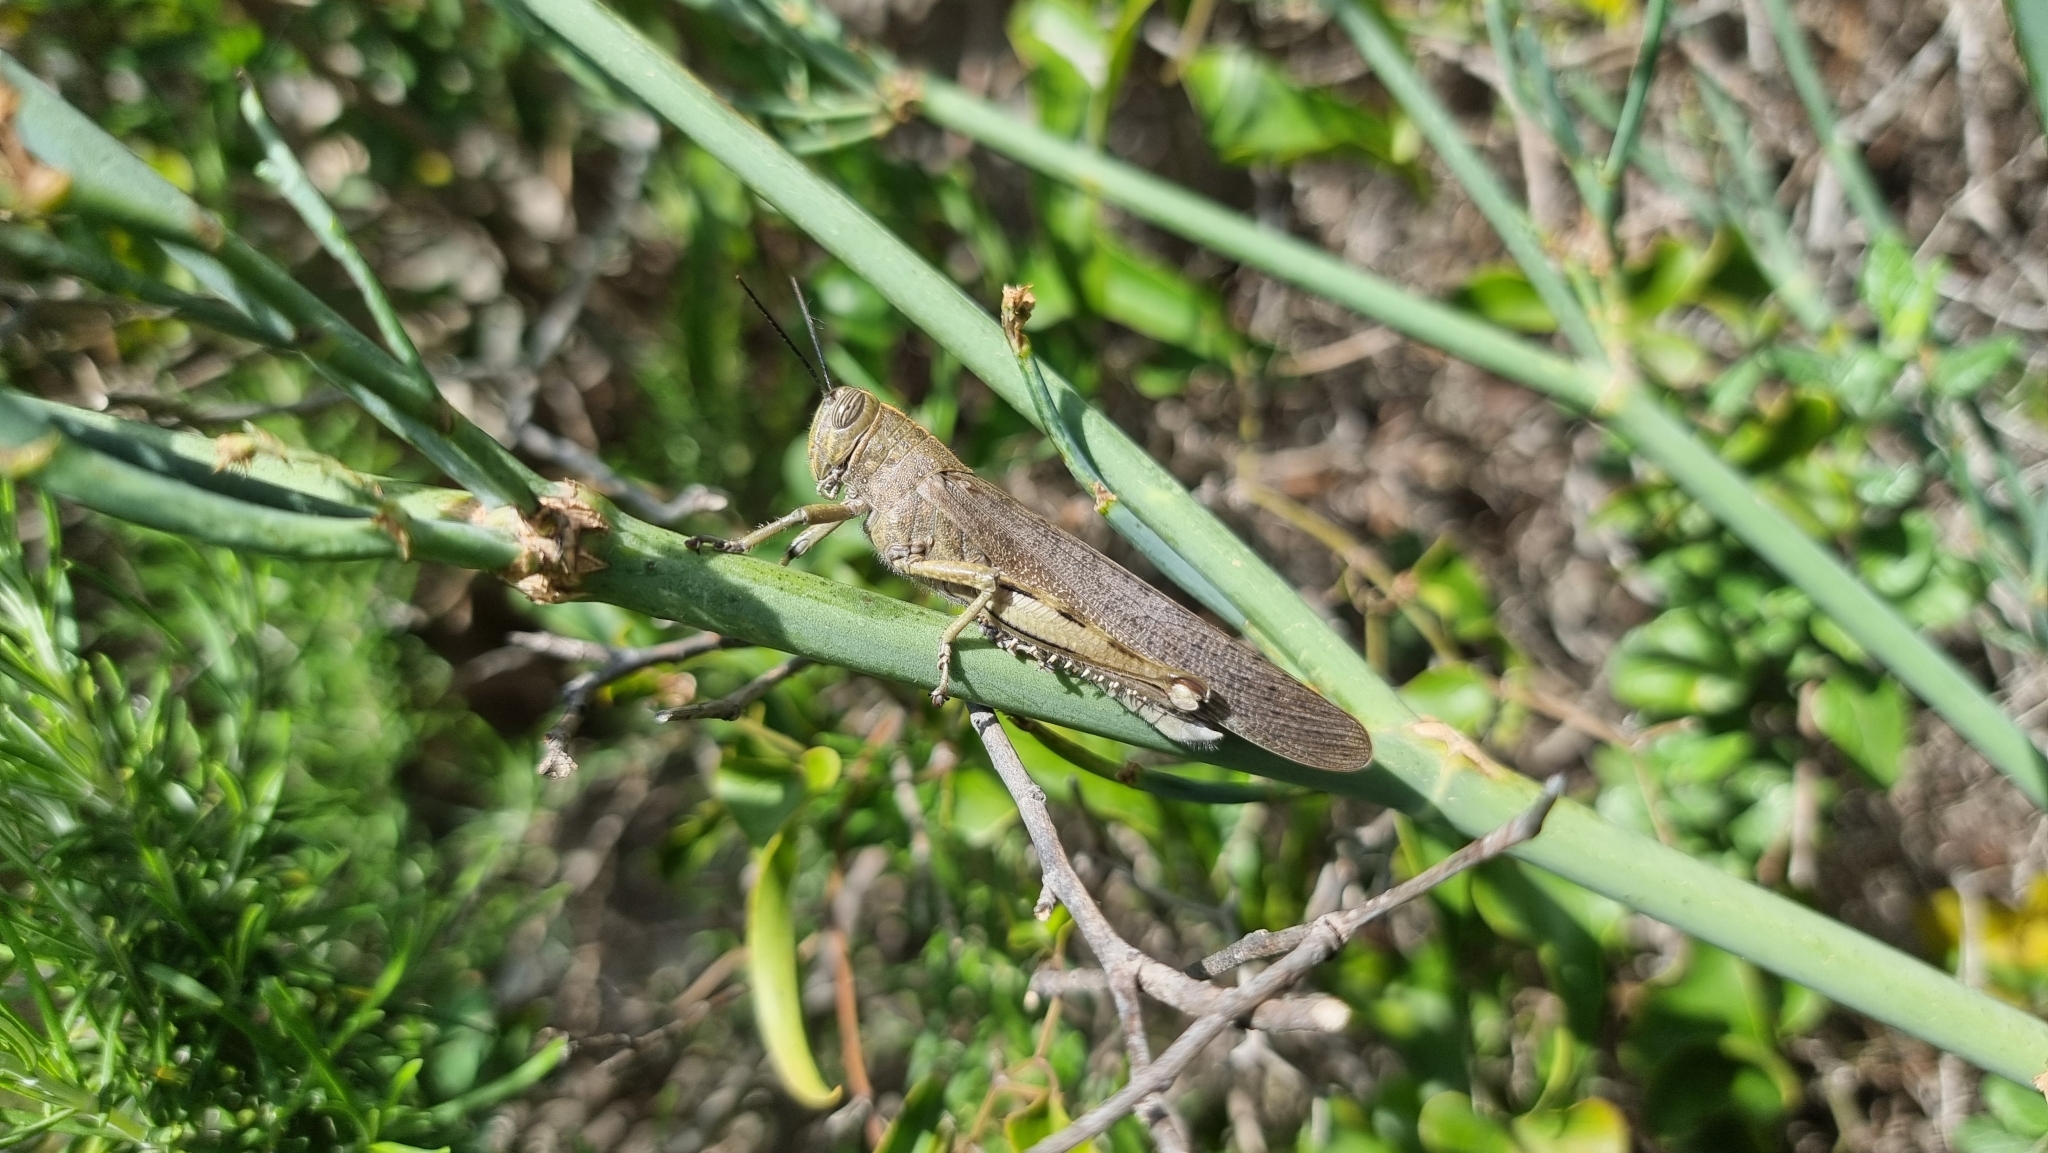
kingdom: Animalia
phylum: Arthropoda
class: Insecta
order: Orthoptera
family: Acrididae
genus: Anacridium
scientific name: Anacridium aegyptium
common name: Egyptian grasshopper
